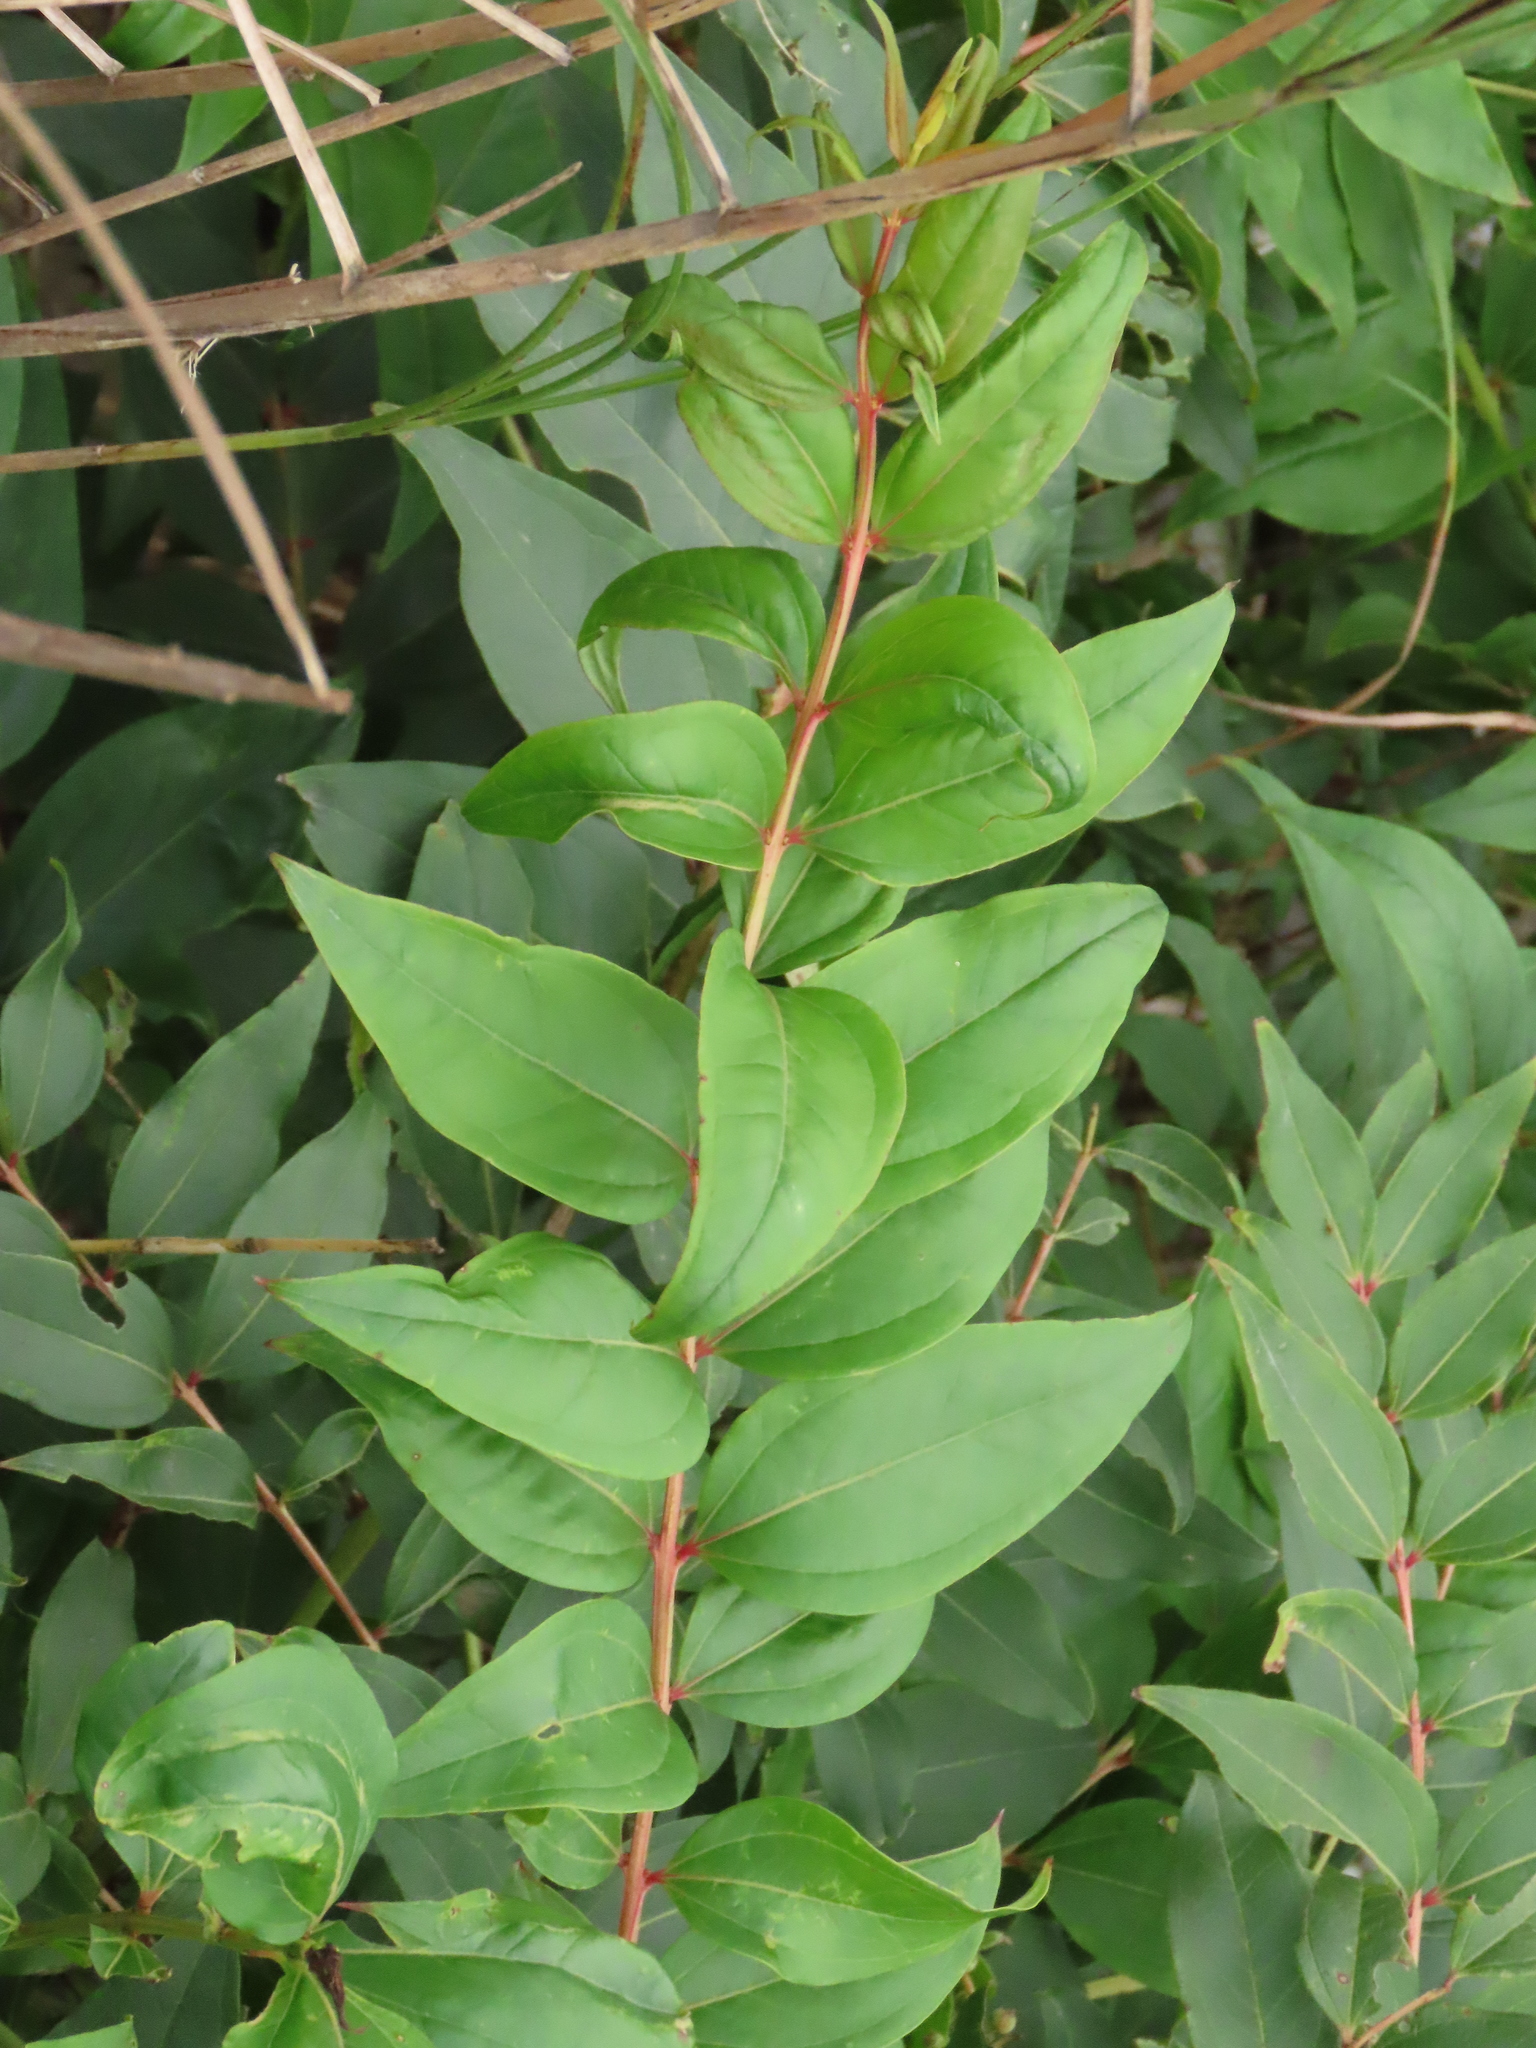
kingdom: Plantae
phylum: Tracheophyta
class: Magnoliopsida
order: Cucurbitales
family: Coriariaceae
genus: Coriaria
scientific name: Coriaria japonica
